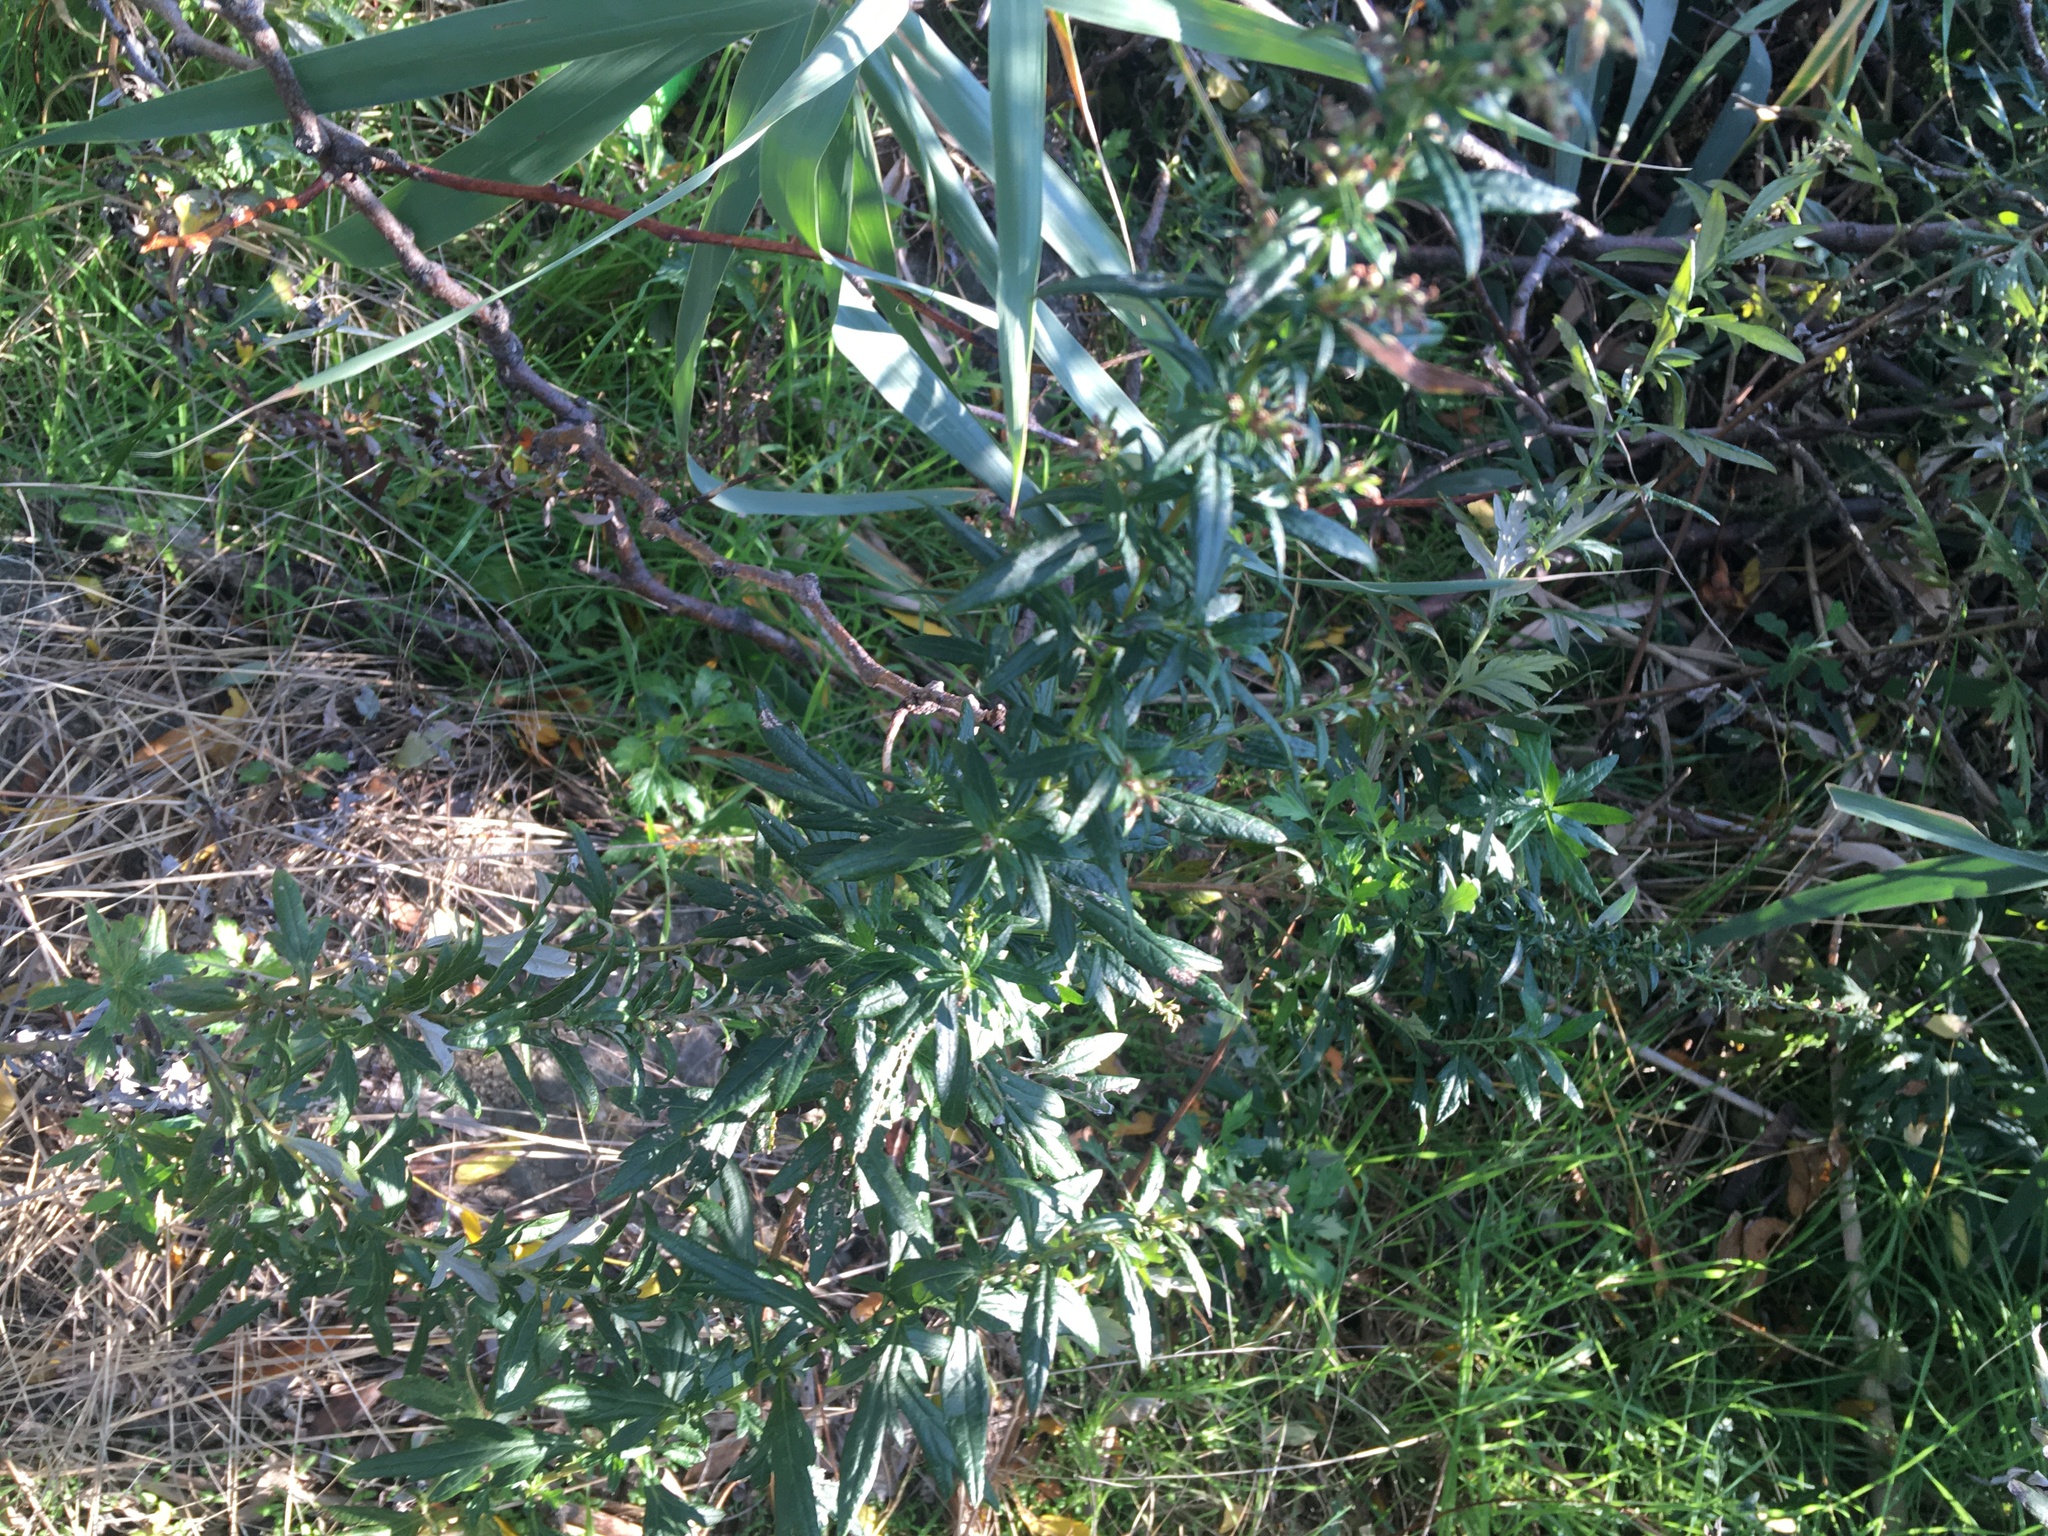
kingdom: Plantae
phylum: Tracheophyta
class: Magnoliopsida
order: Asterales
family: Asteraceae
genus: Artemisia
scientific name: Artemisia vulgaris
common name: Mugwort
